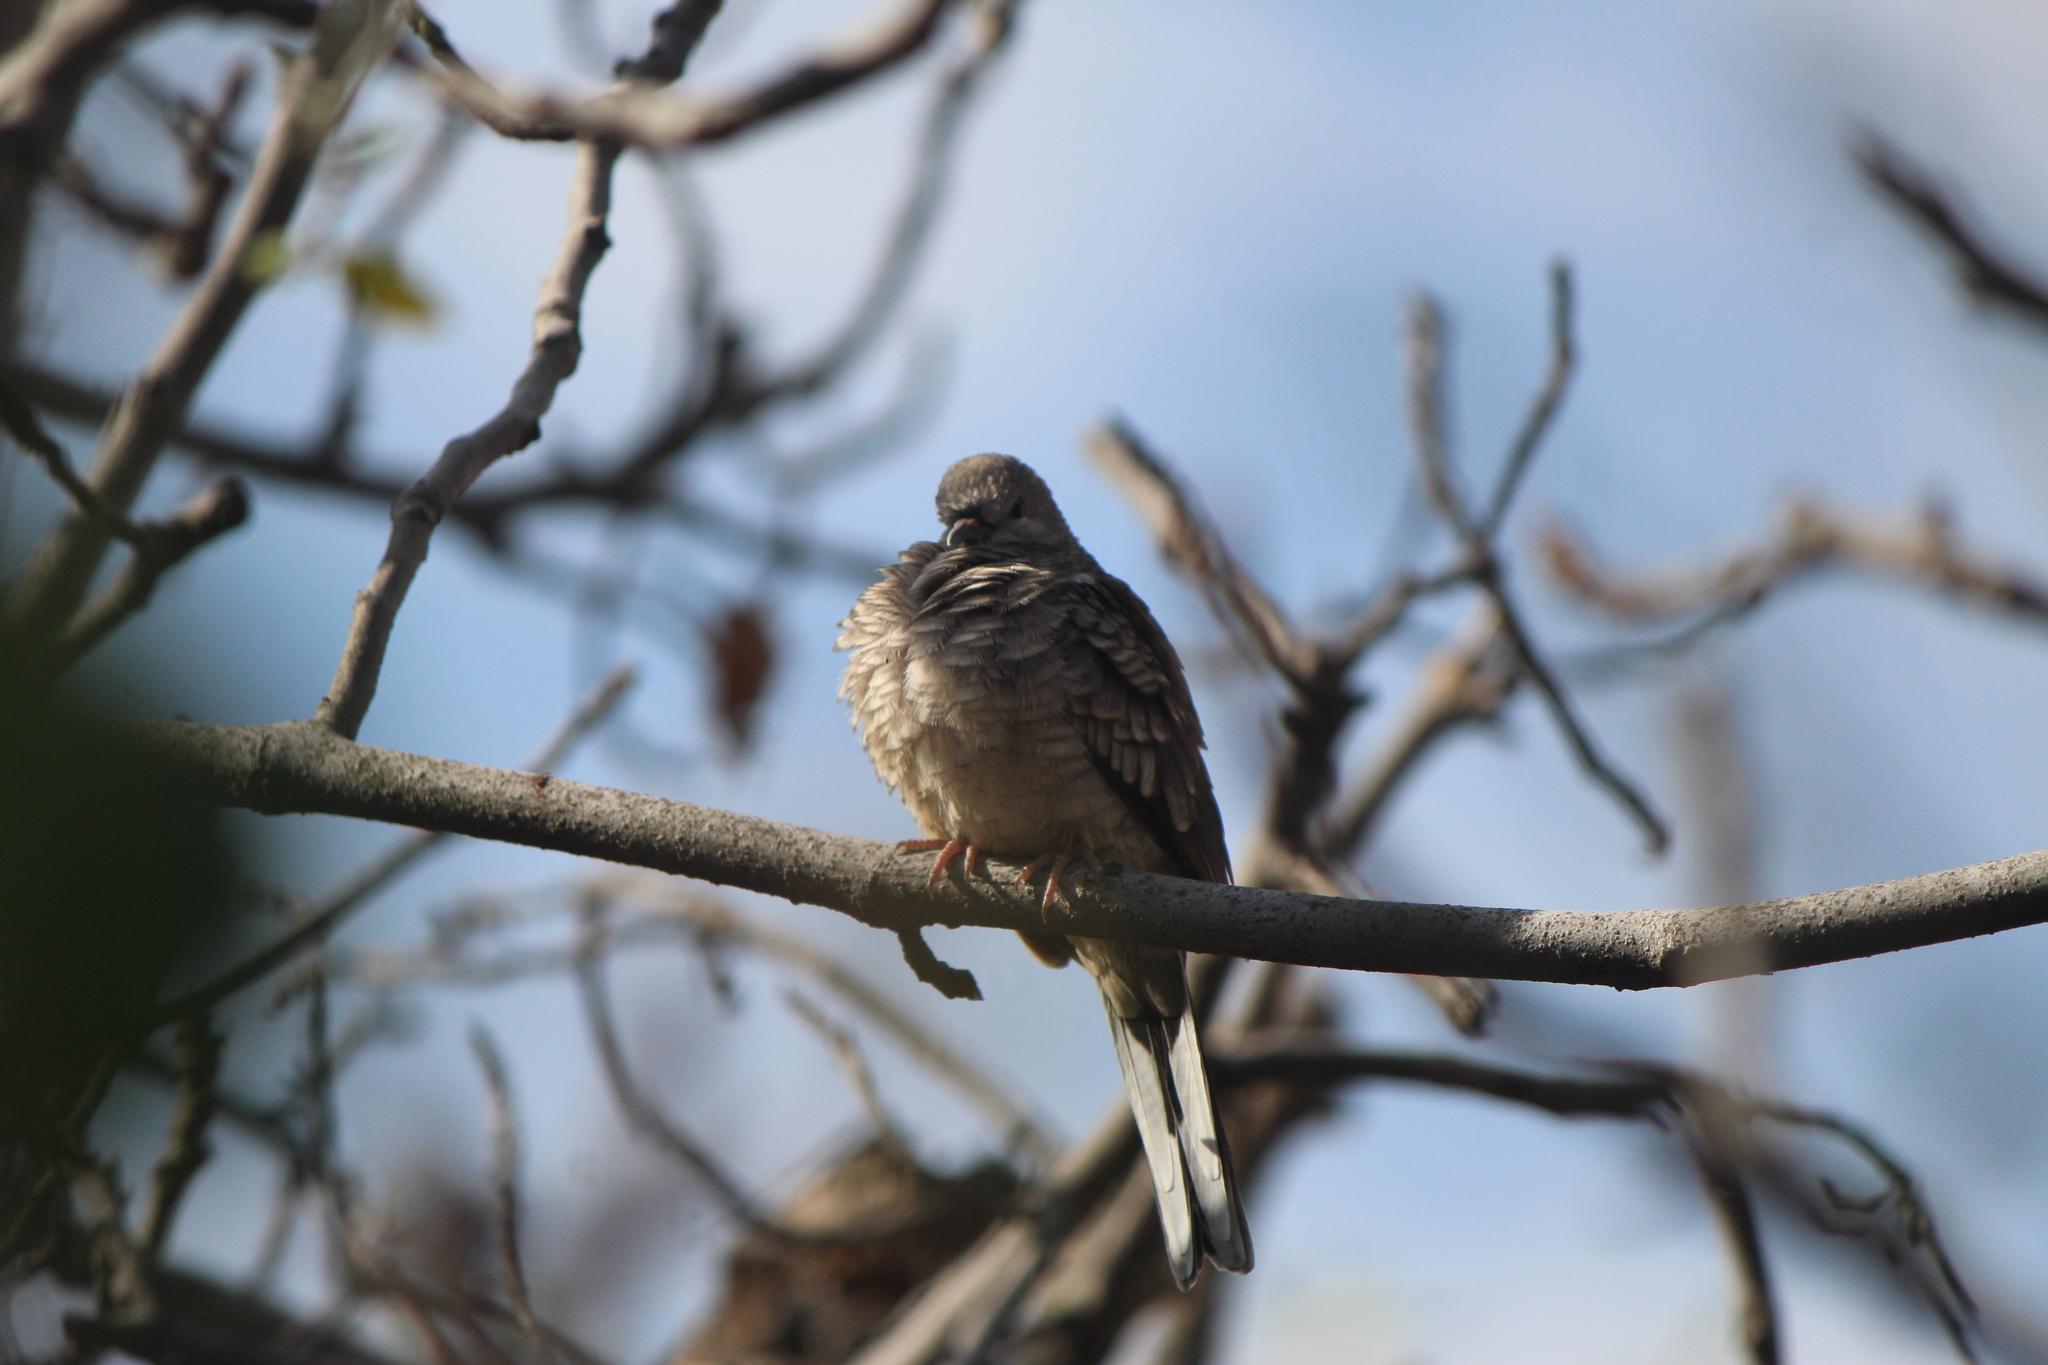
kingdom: Animalia
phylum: Chordata
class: Aves
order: Columbiformes
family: Columbidae
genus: Columbina
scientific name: Columbina inca
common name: Inca dove
